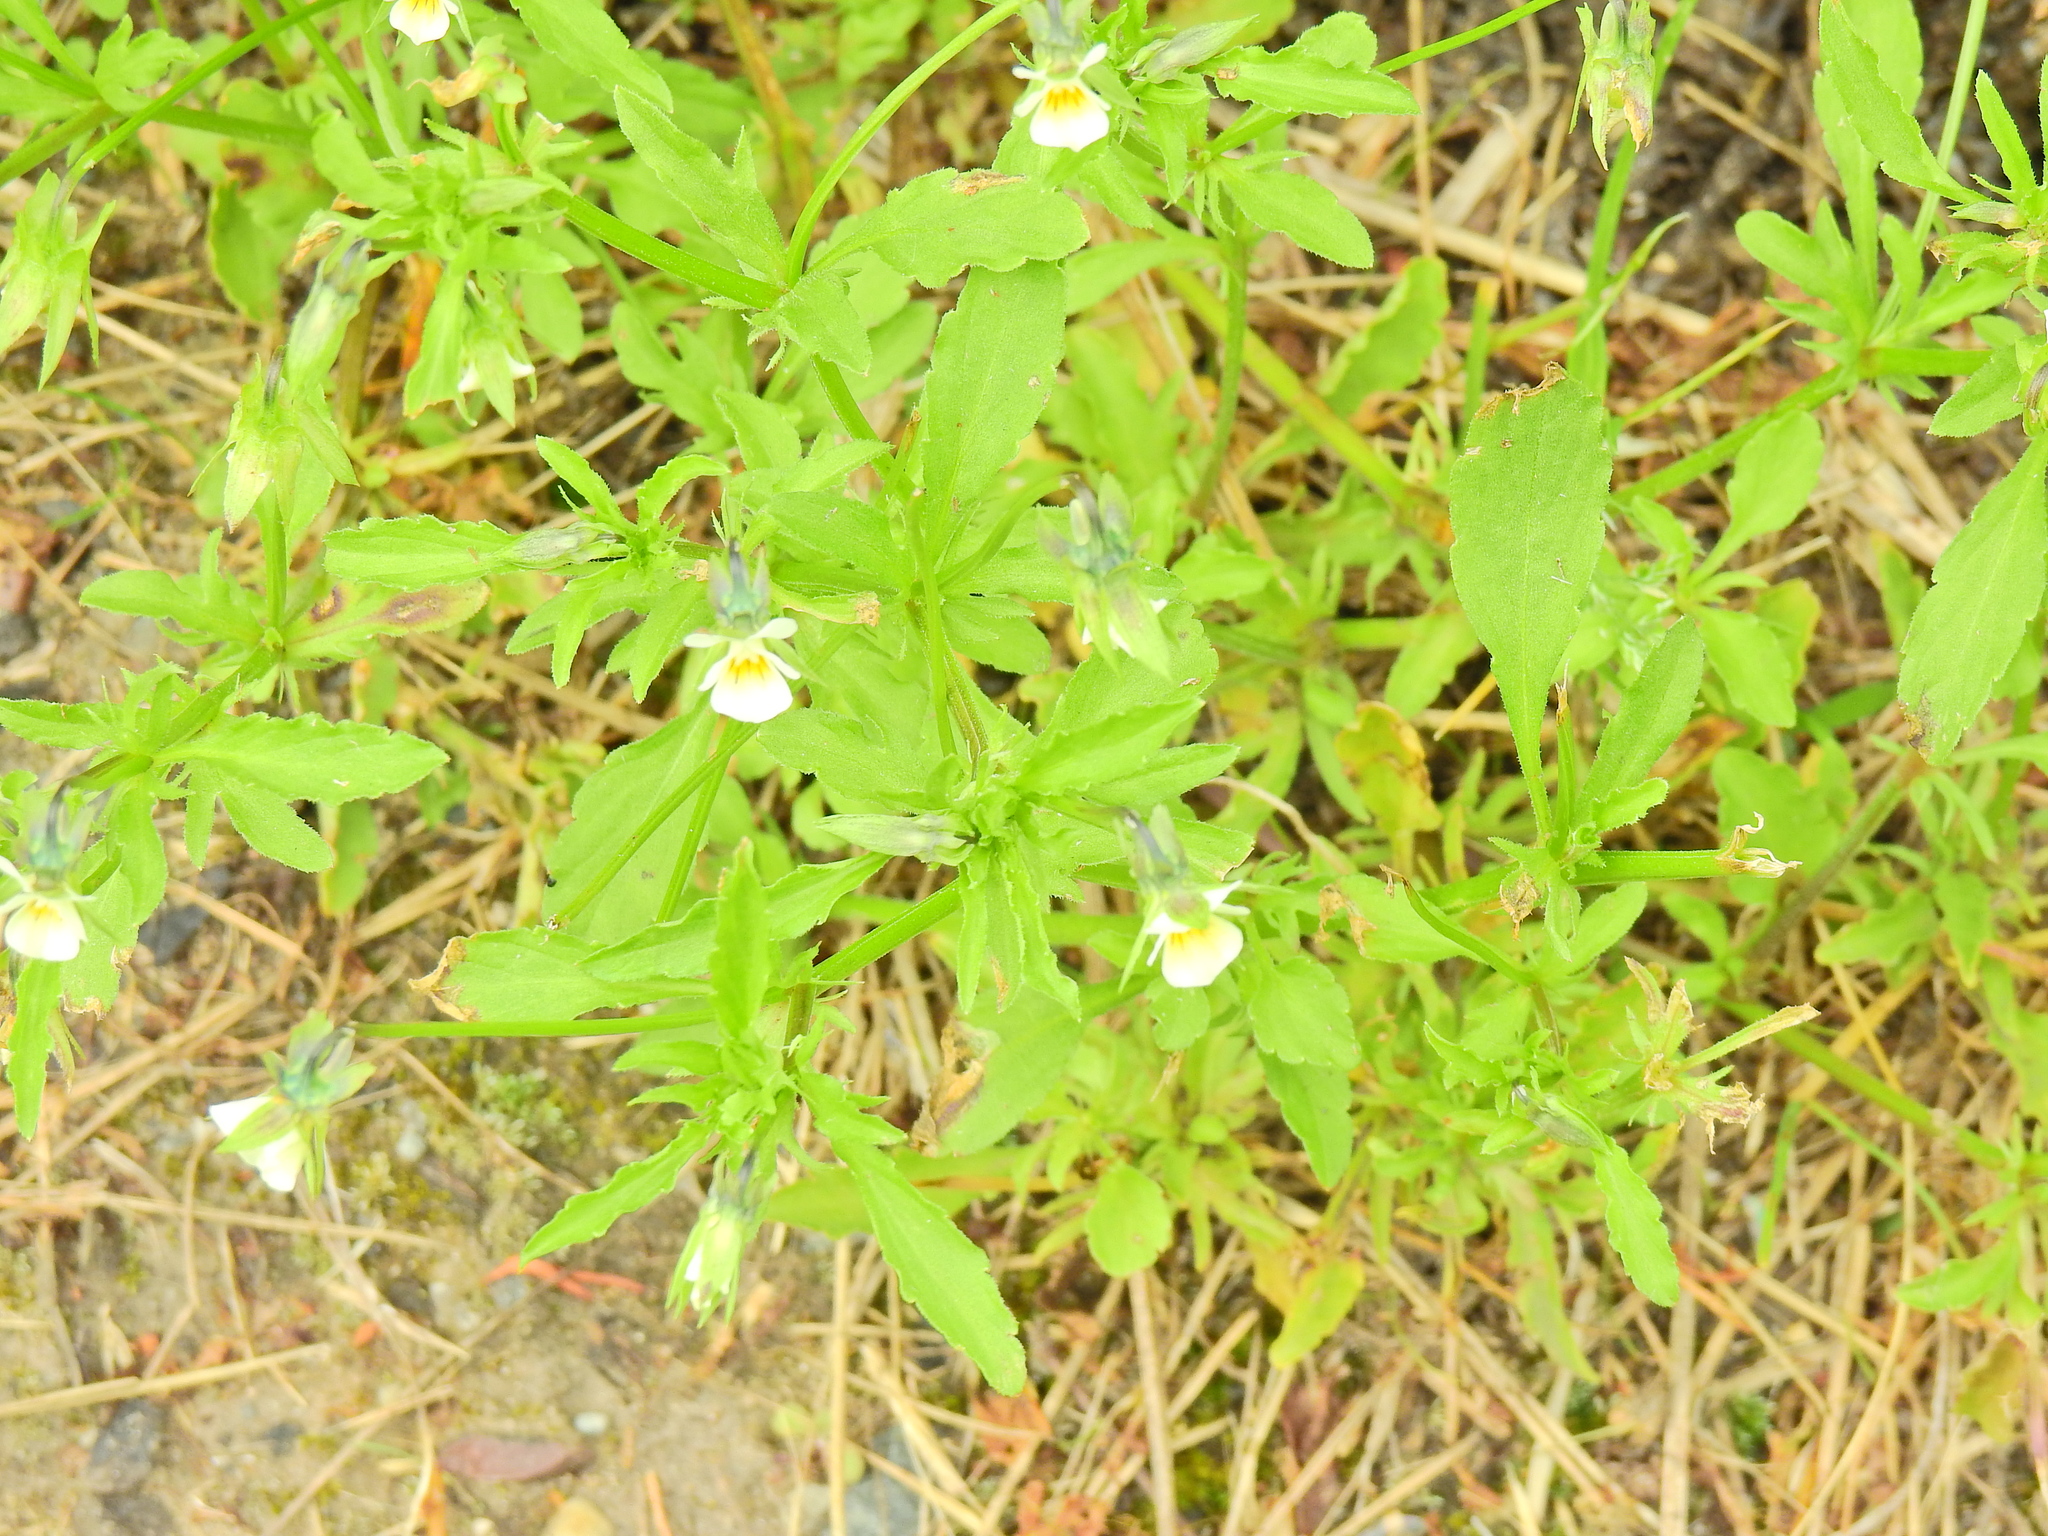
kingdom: Plantae
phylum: Tracheophyta
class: Magnoliopsida
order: Malpighiales
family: Violaceae
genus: Viola
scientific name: Viola arvensis
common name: Field pansy
